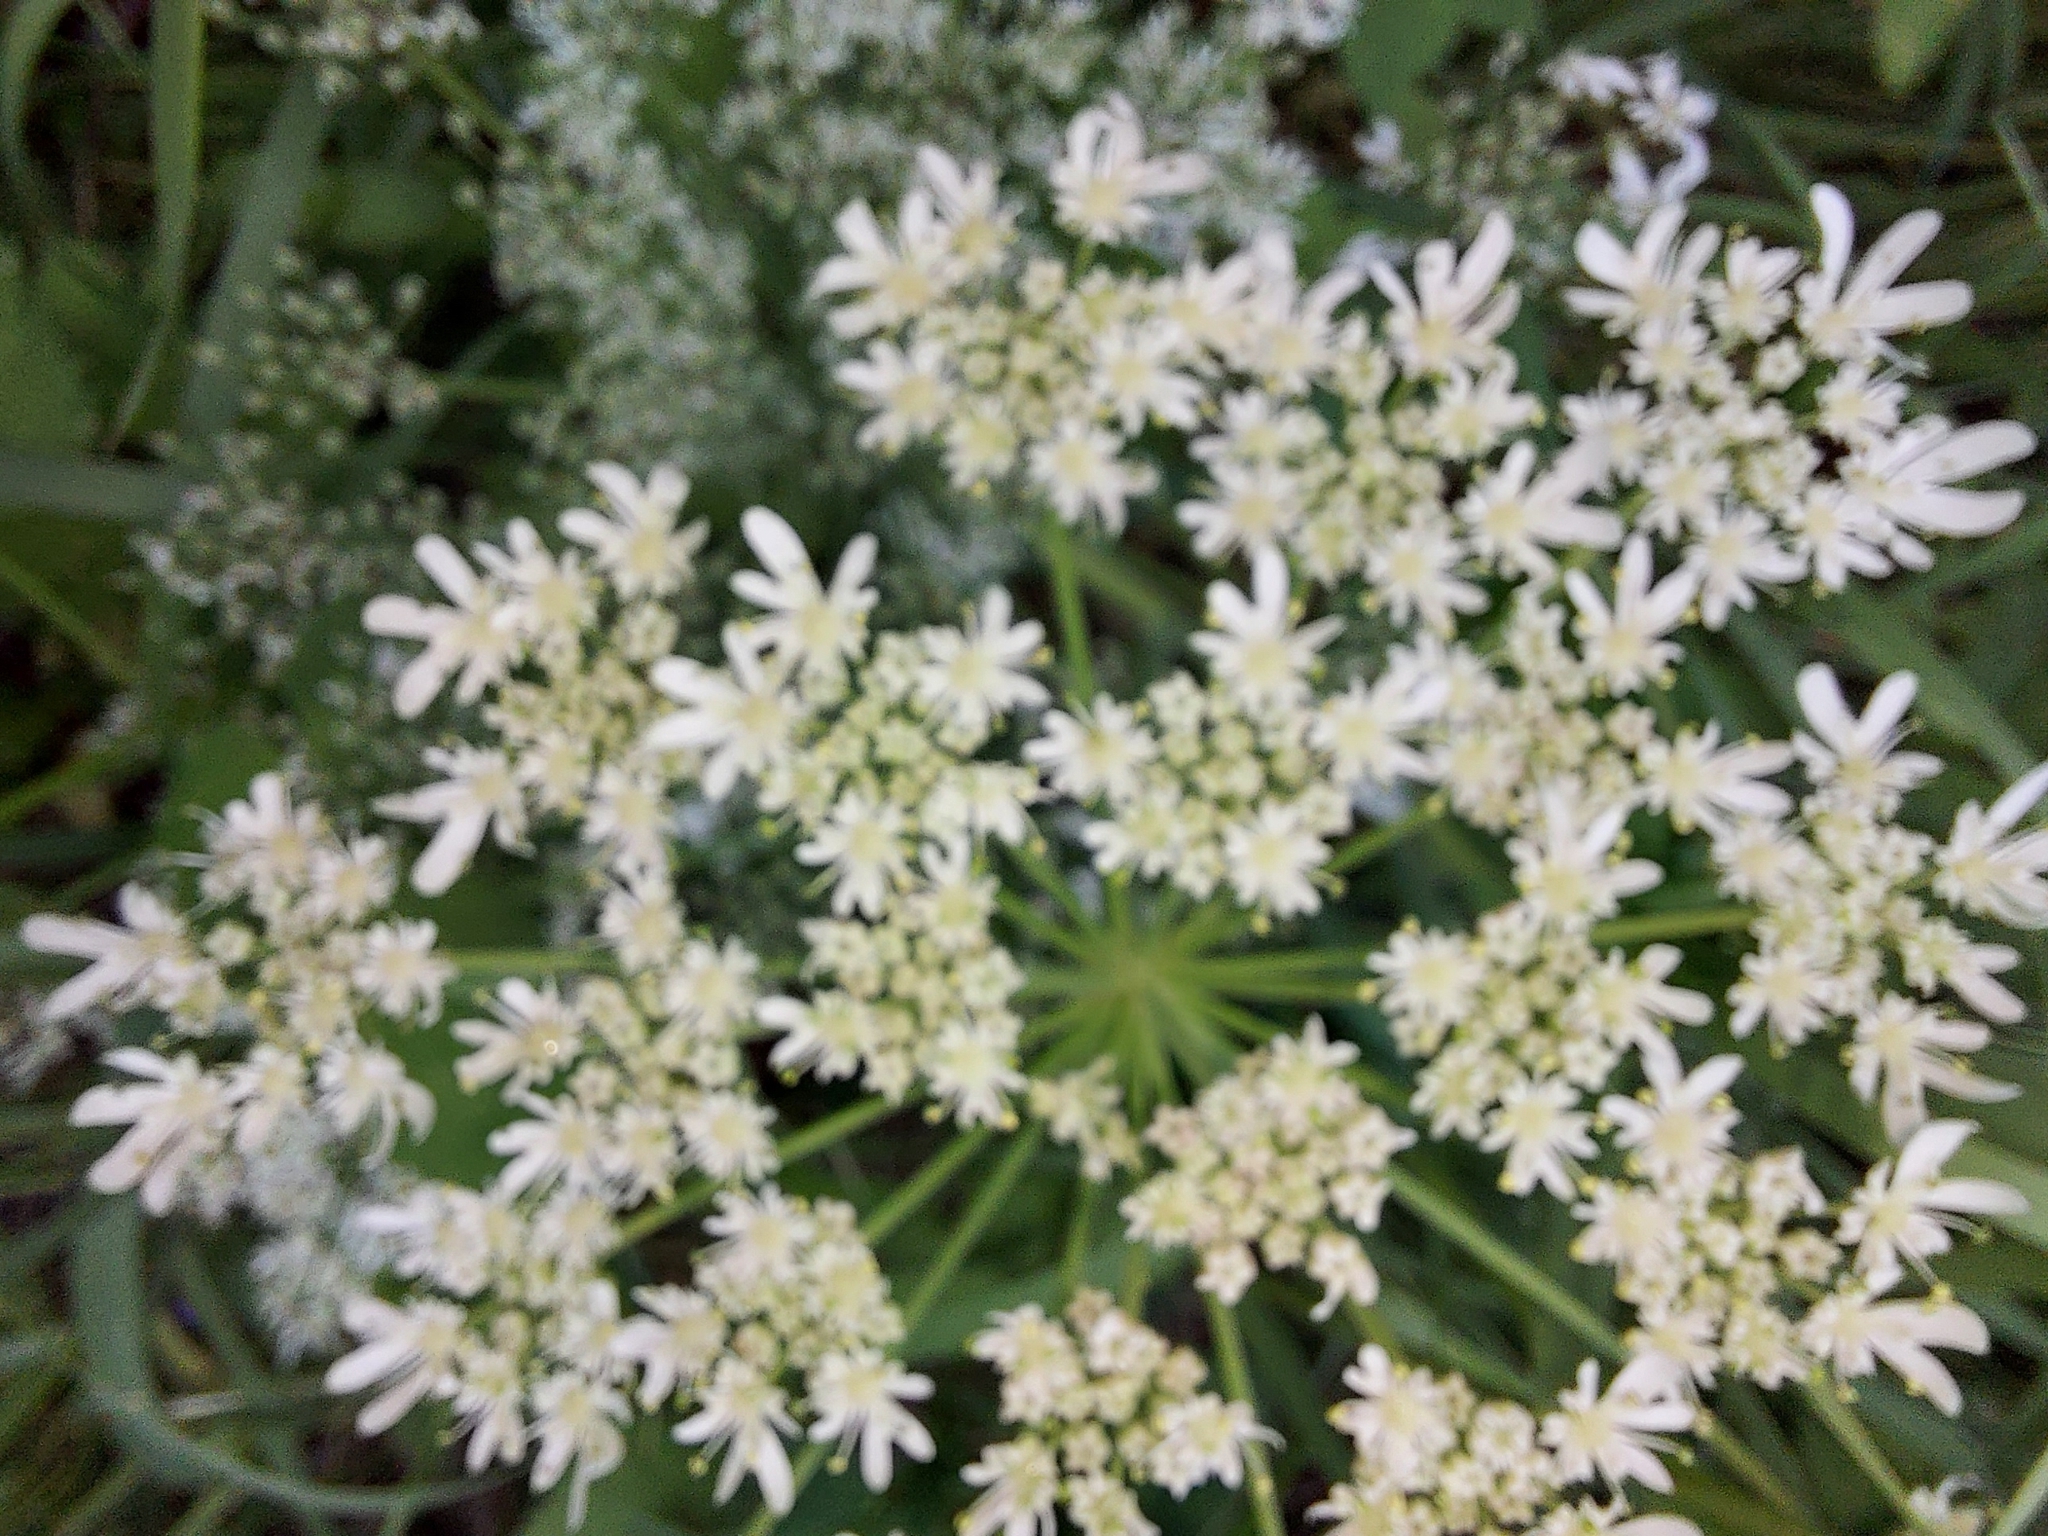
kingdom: Plantae
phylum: Tracheophyta
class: Magnoliopsida
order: Apiales
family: Apiaceae
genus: Heracleum
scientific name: Heracleum dissectum
